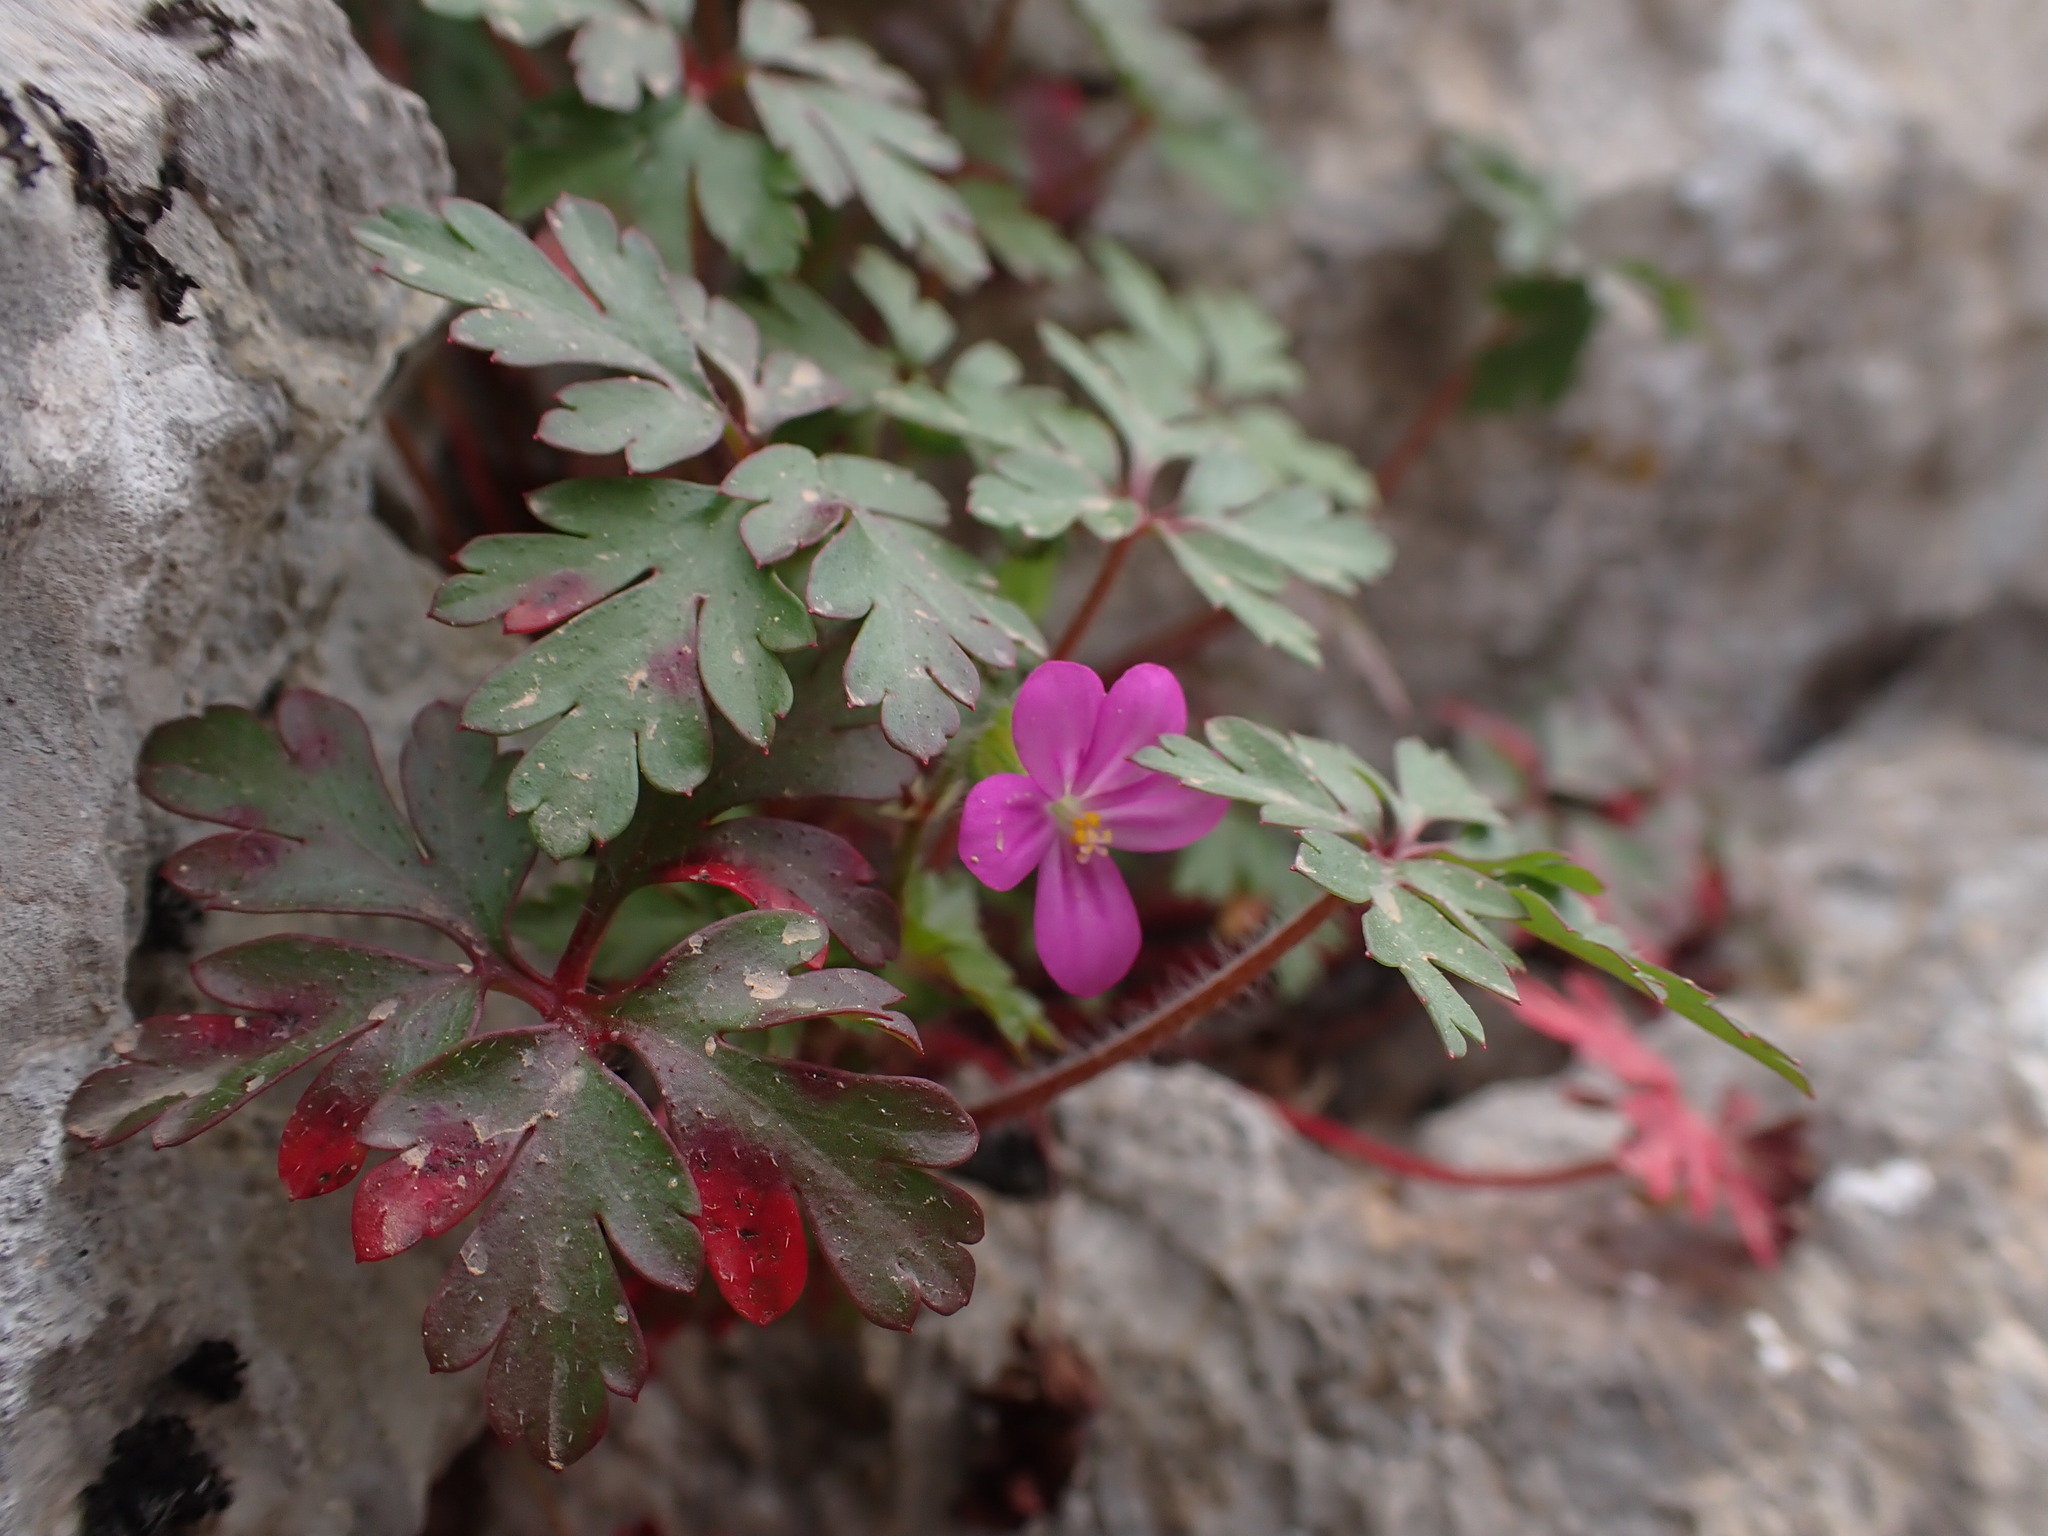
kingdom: Plantae
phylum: Tracheophyta
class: Magnoliopsida
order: Geraniales
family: Geraniaceae
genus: Geranium
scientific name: Geranium purpureum
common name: Little-robin
